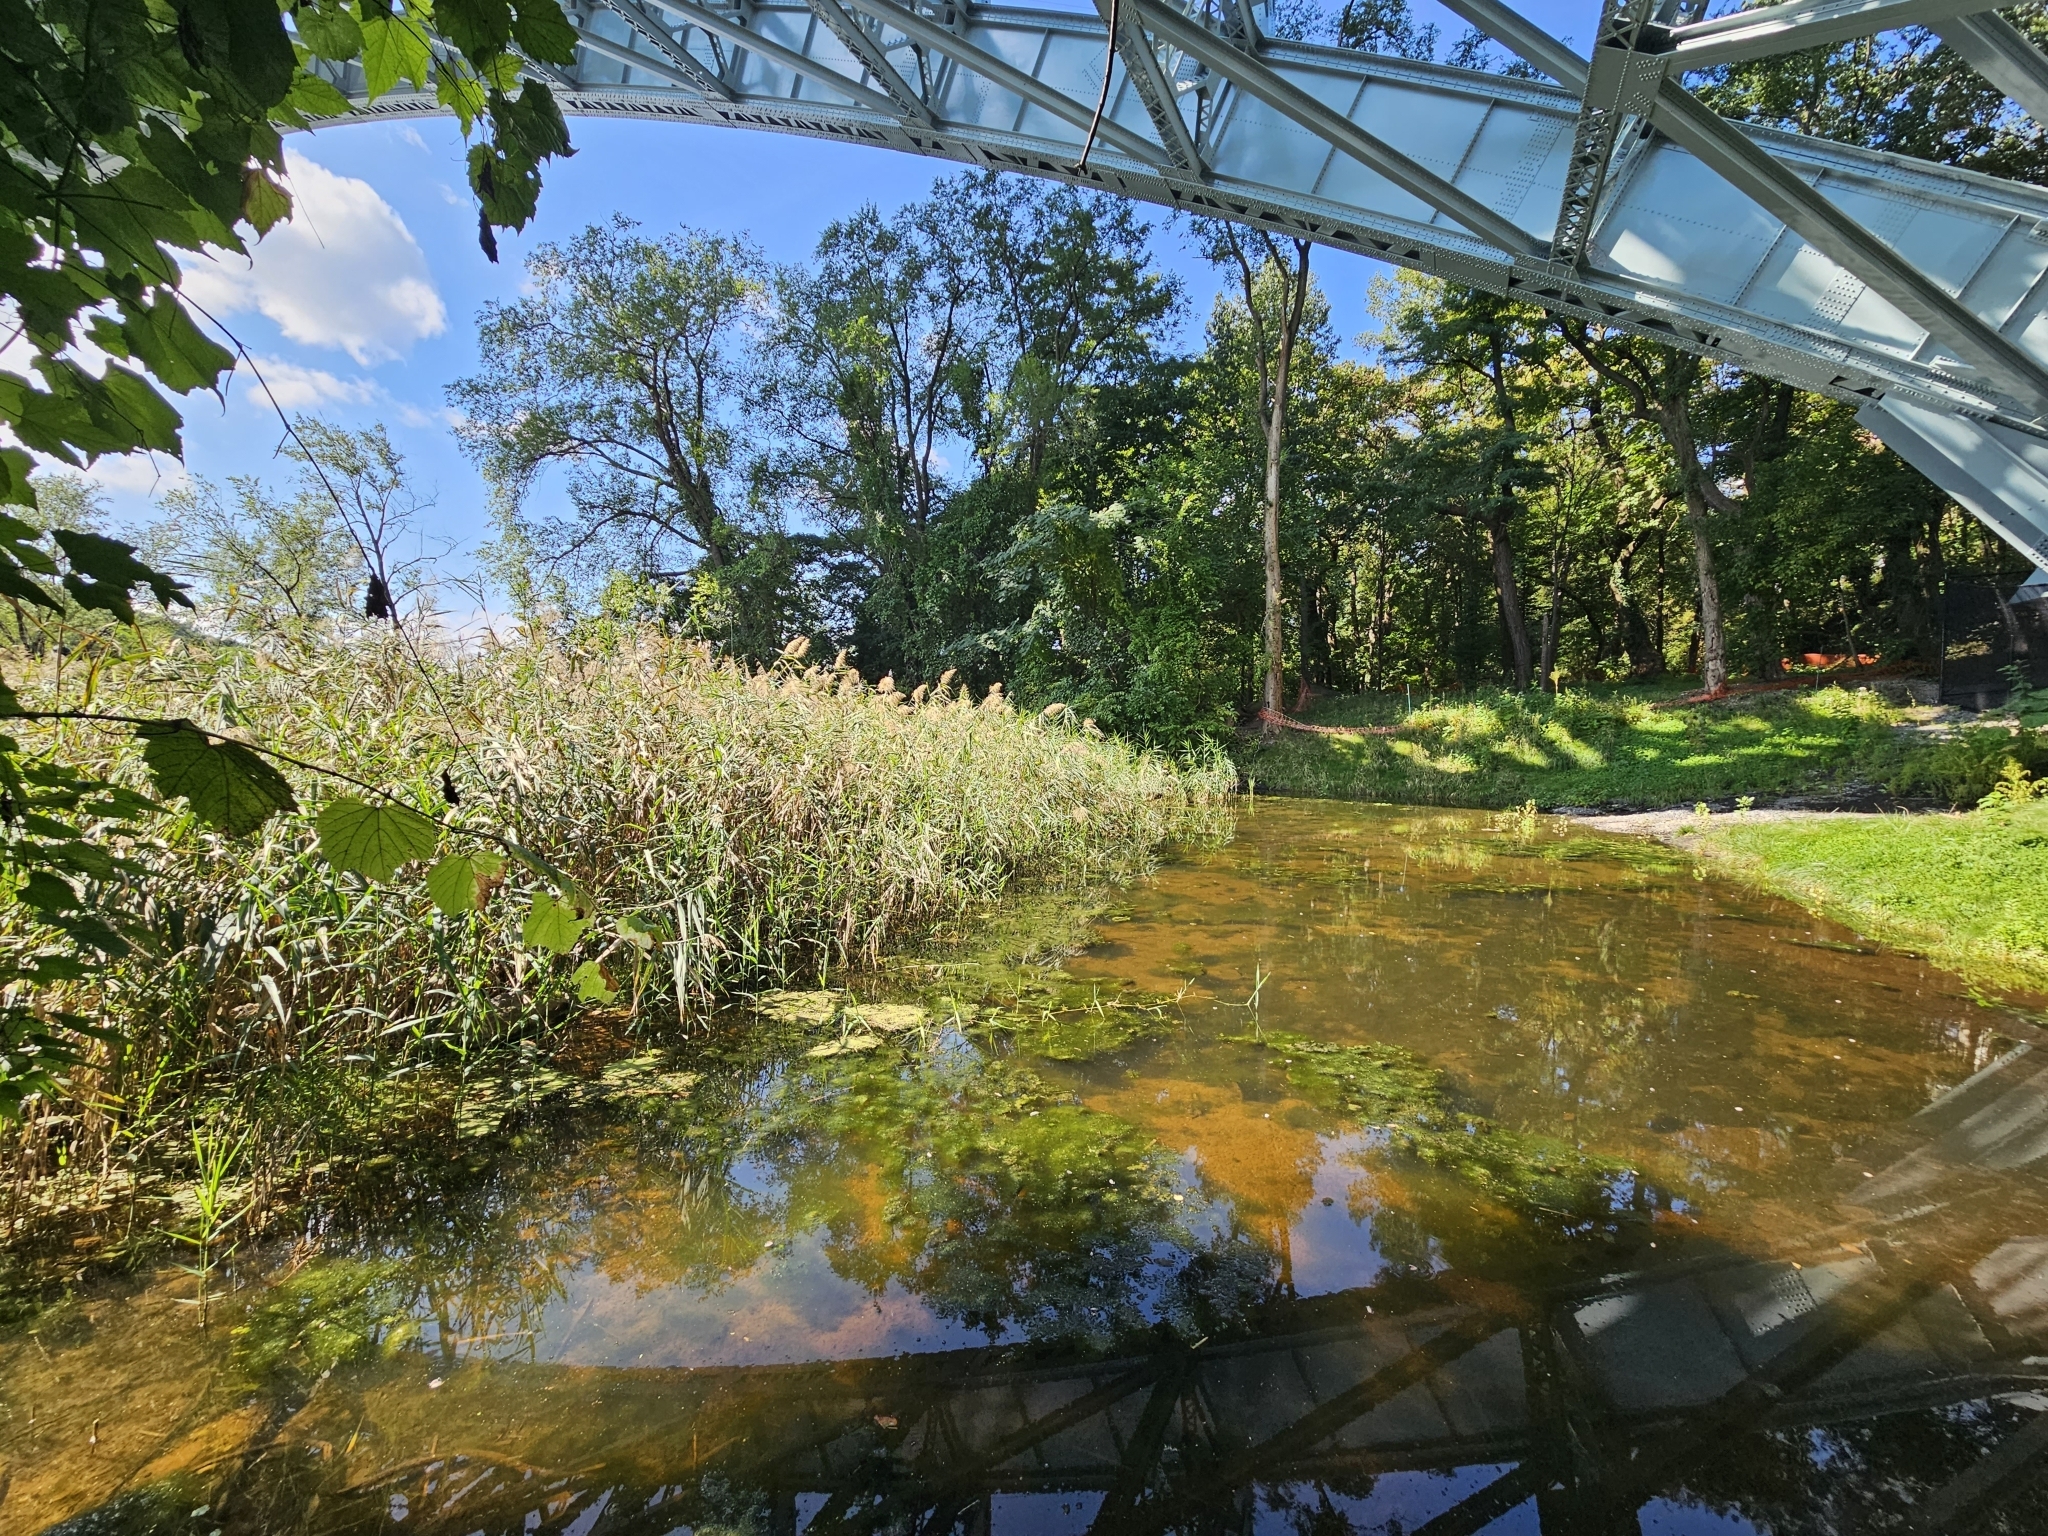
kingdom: Plantae
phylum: Tracheophyta
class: Liliopsida
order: Poales
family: Poaceae
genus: Phragmites
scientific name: Phragmites australis
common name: Common reed
